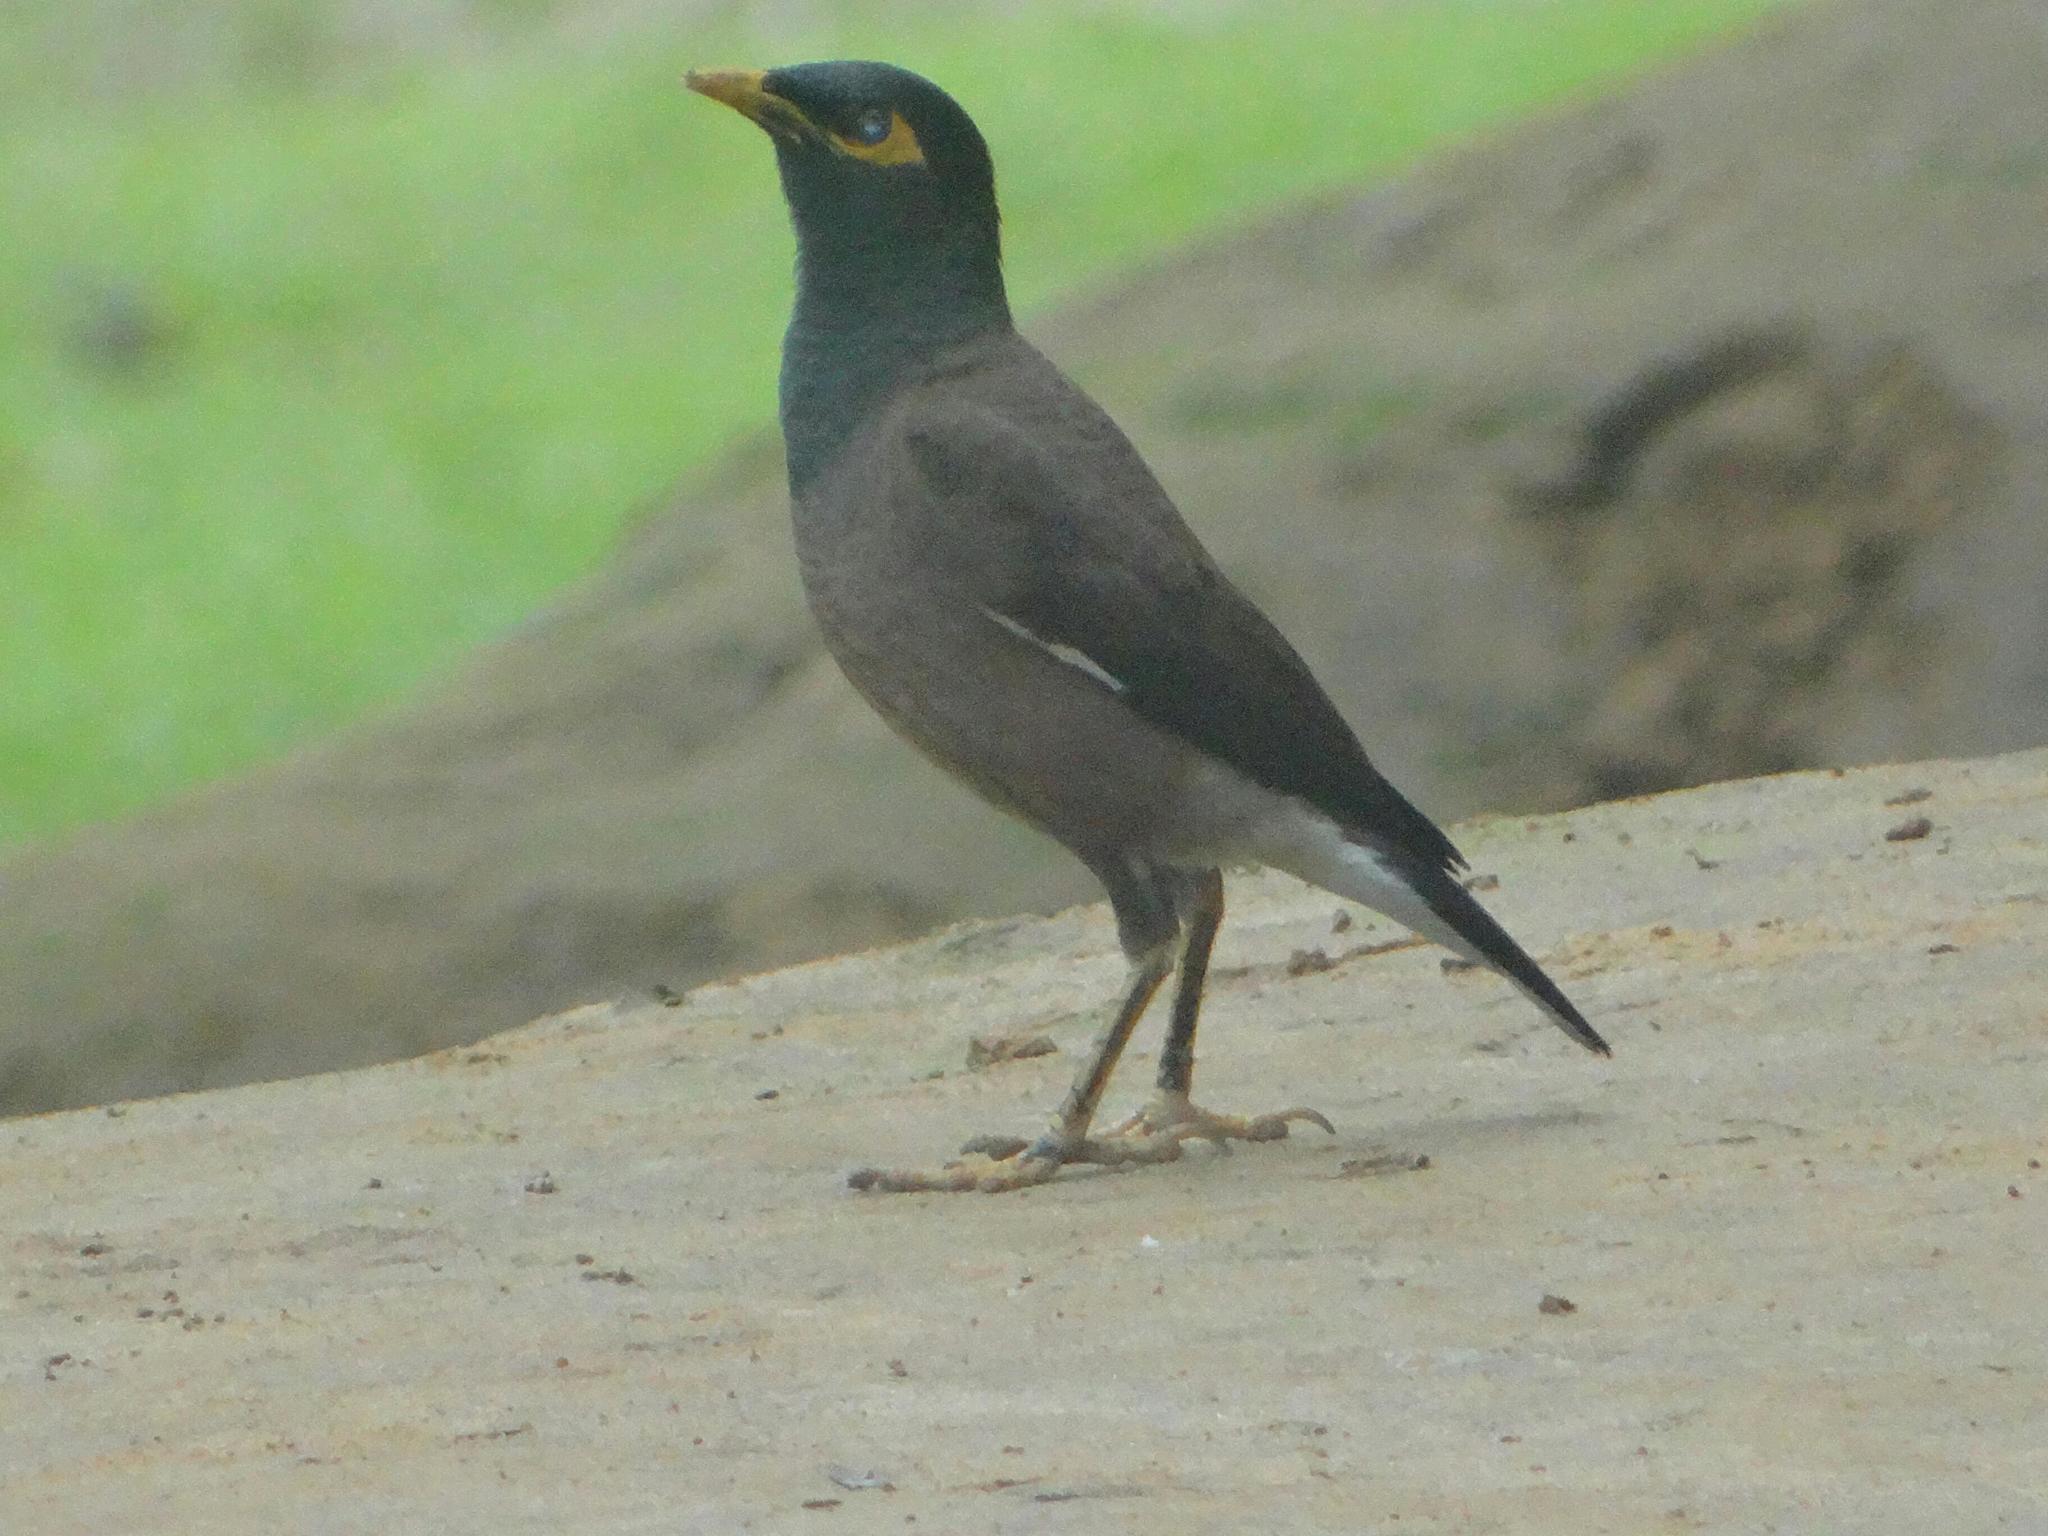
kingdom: Animalia
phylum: Chordata
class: Aves
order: Passeriformes
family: Sturnidae
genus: Acridotheres
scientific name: Acridotheres tristis
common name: Common myna
